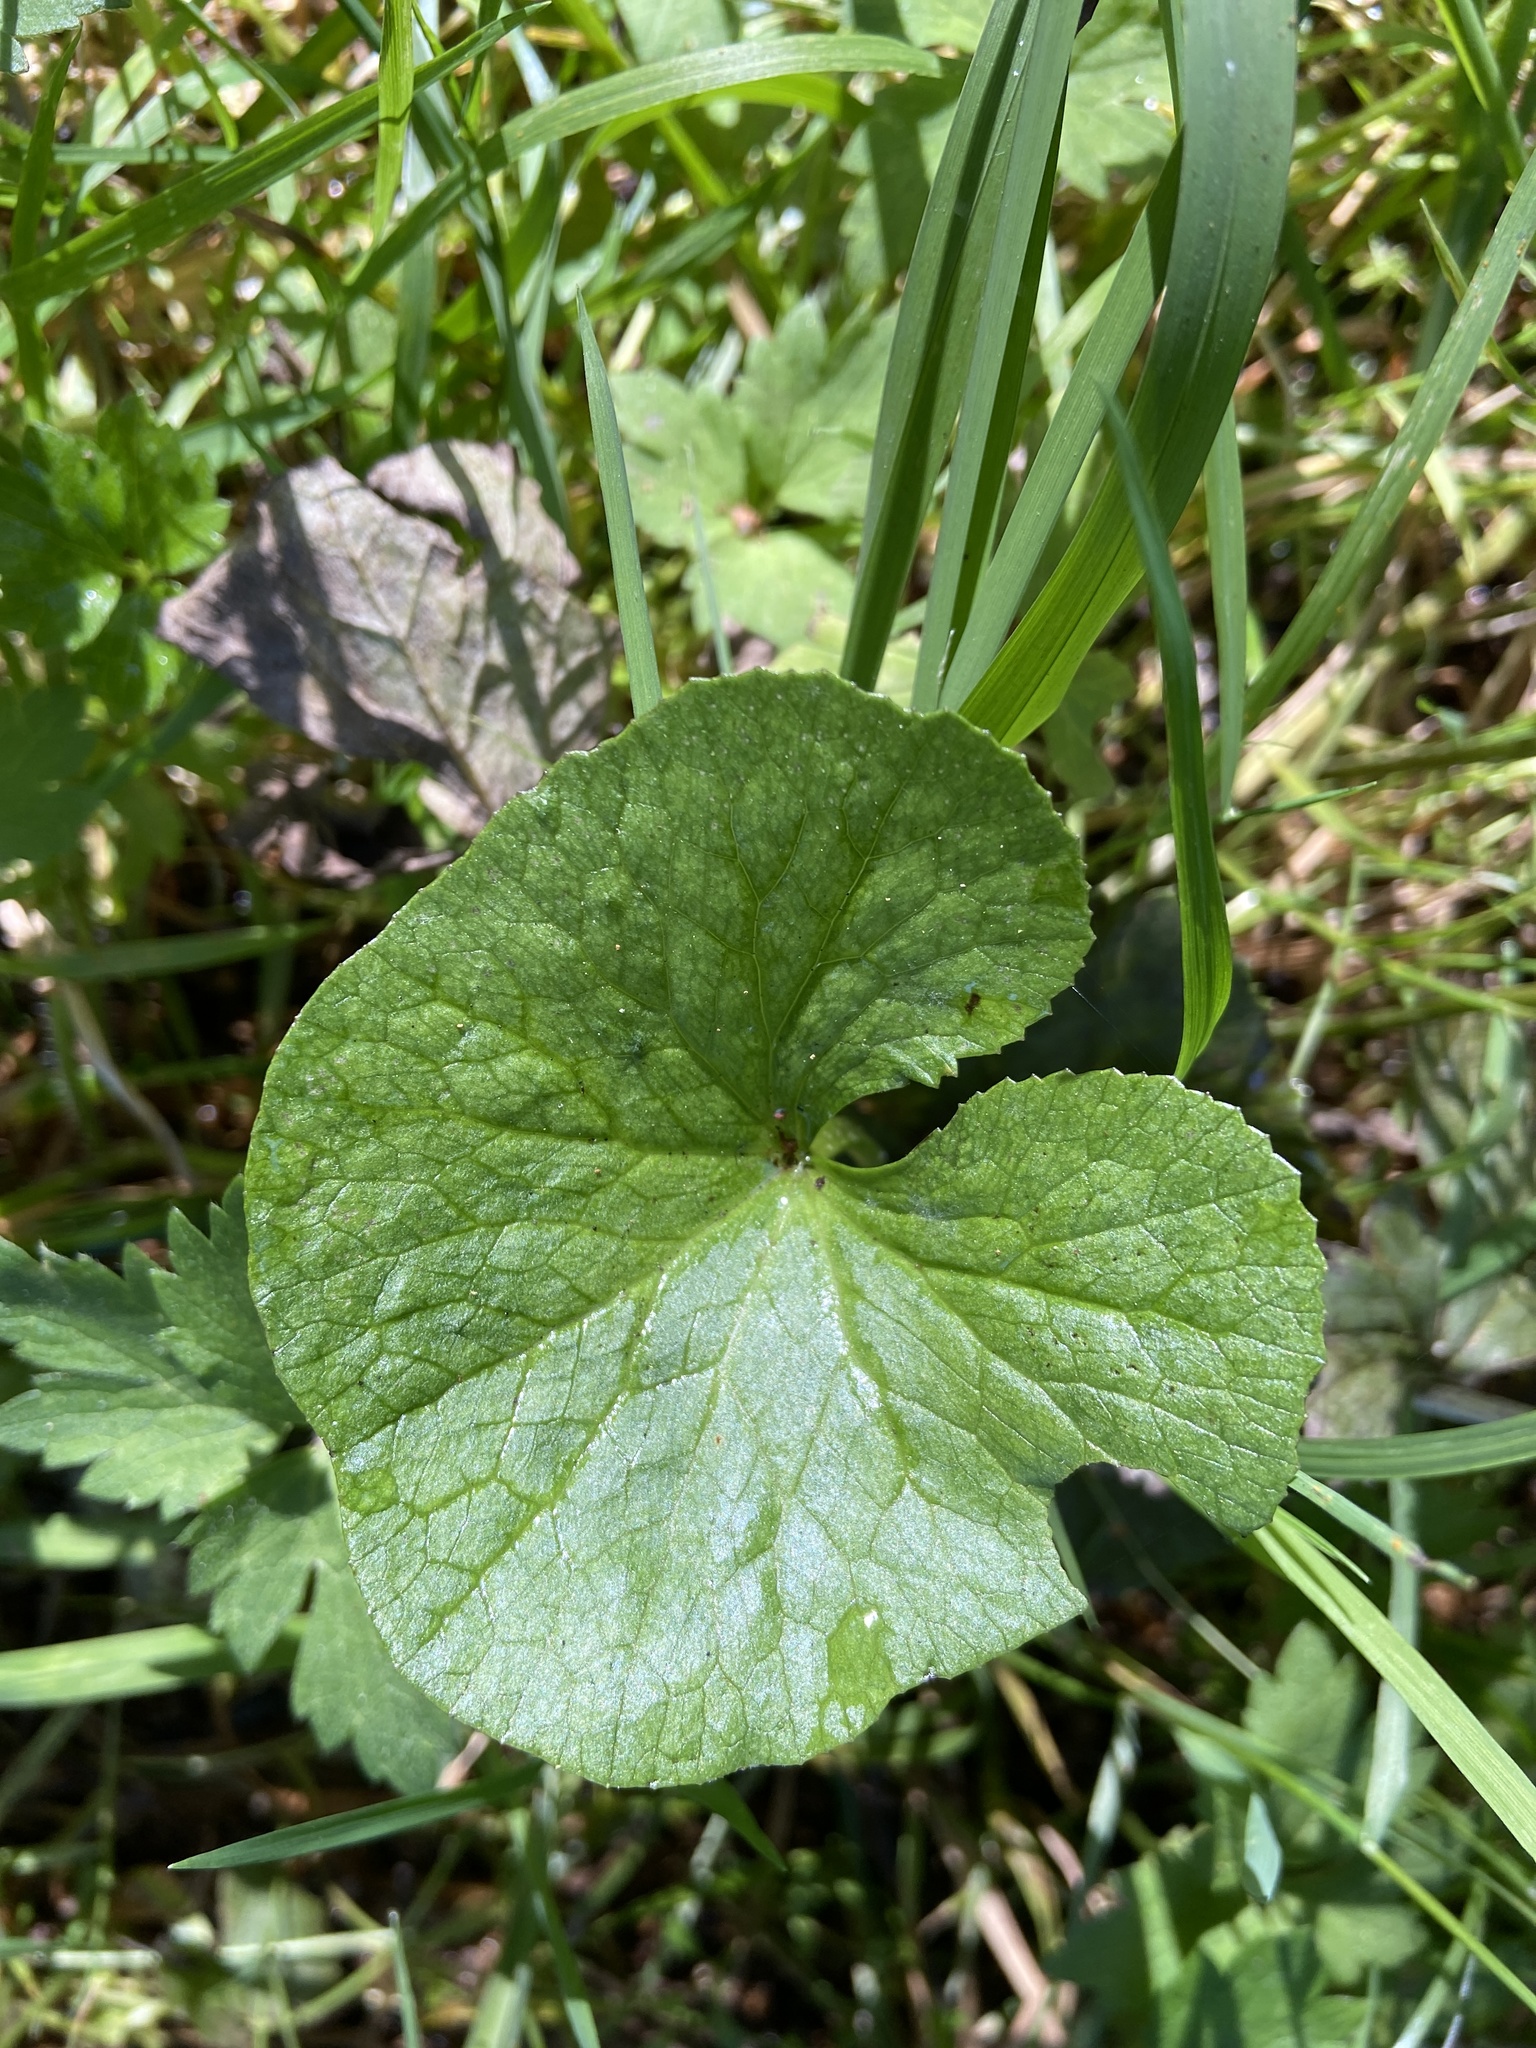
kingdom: Plantae
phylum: Tracheophyta
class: Magnoliopsida
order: Ranunculales
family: Ranunculaceae
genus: Caltha
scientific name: Caltha palustris
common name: Marsh marigold
